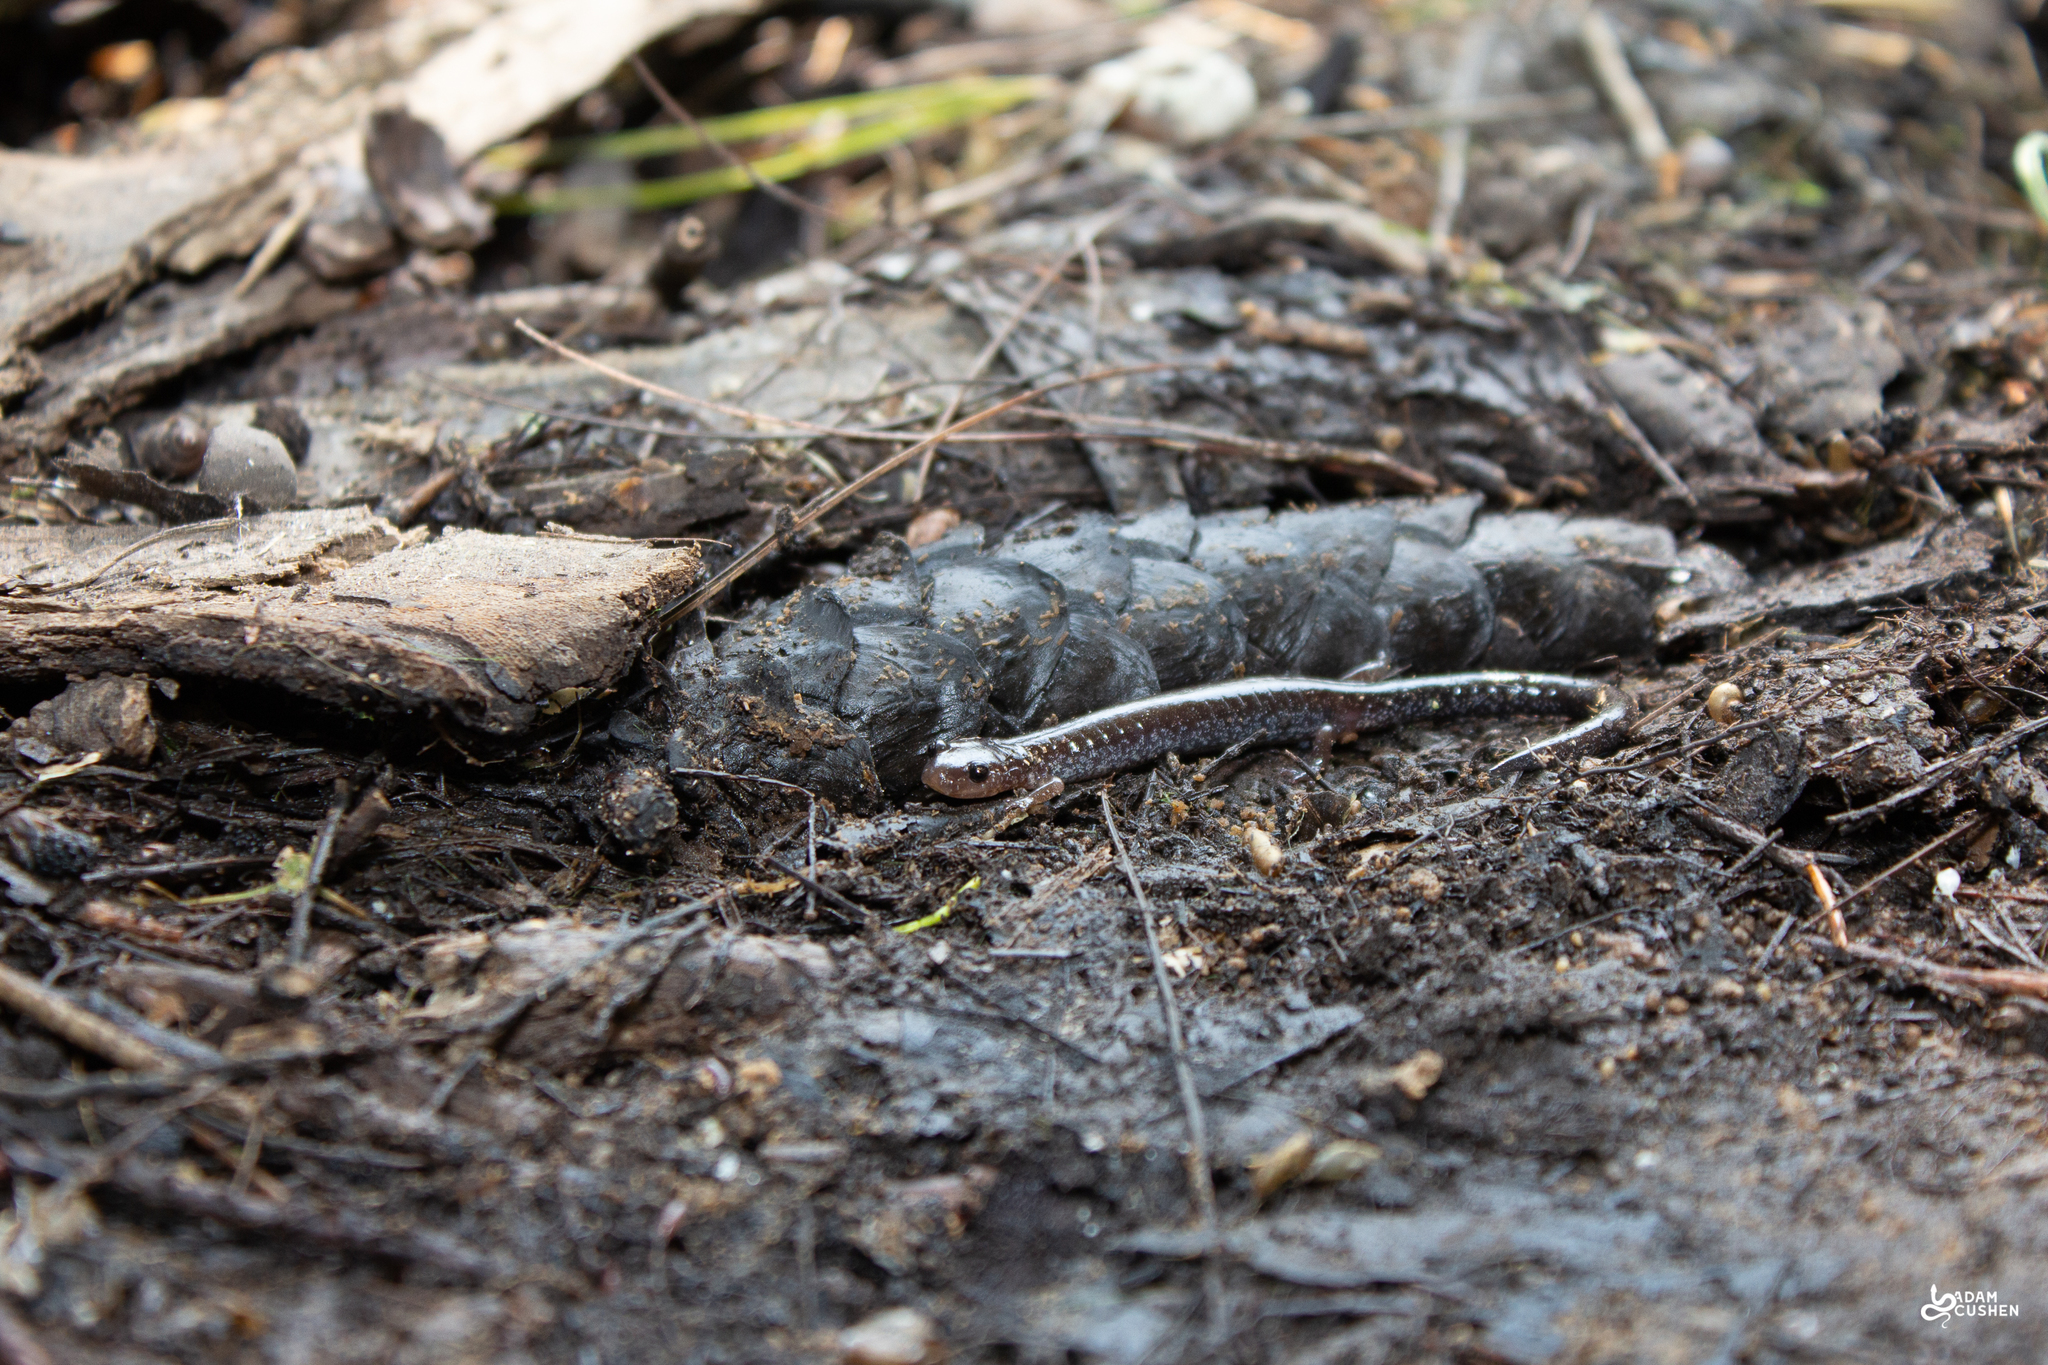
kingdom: Animalia
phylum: Chordata
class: Amphibia
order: Caudata
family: Plethodontidae
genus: Plethodon
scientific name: Plethodon cinereus
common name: Redback salamander
